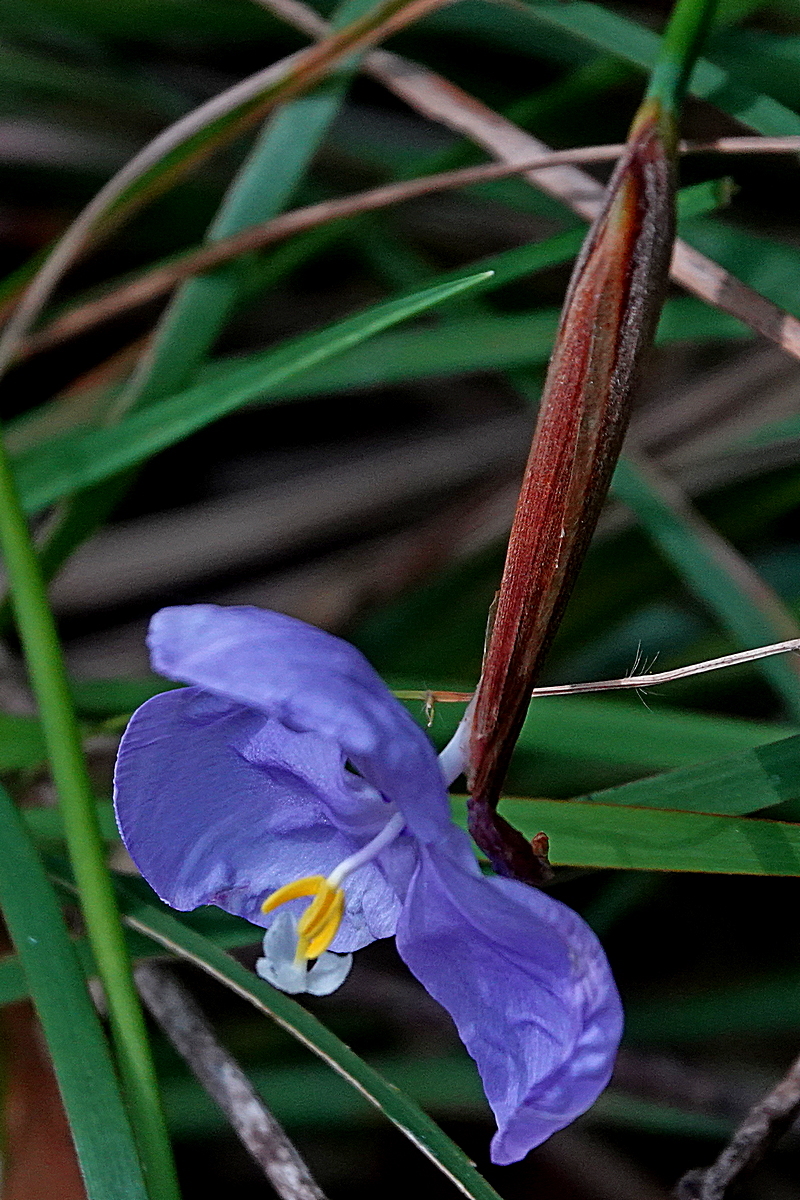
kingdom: Plantae
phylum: Tracheophyta
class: Liliopsida
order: Asparagales
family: Iridaceae
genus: Patersonia
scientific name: Patersonia glabrata
